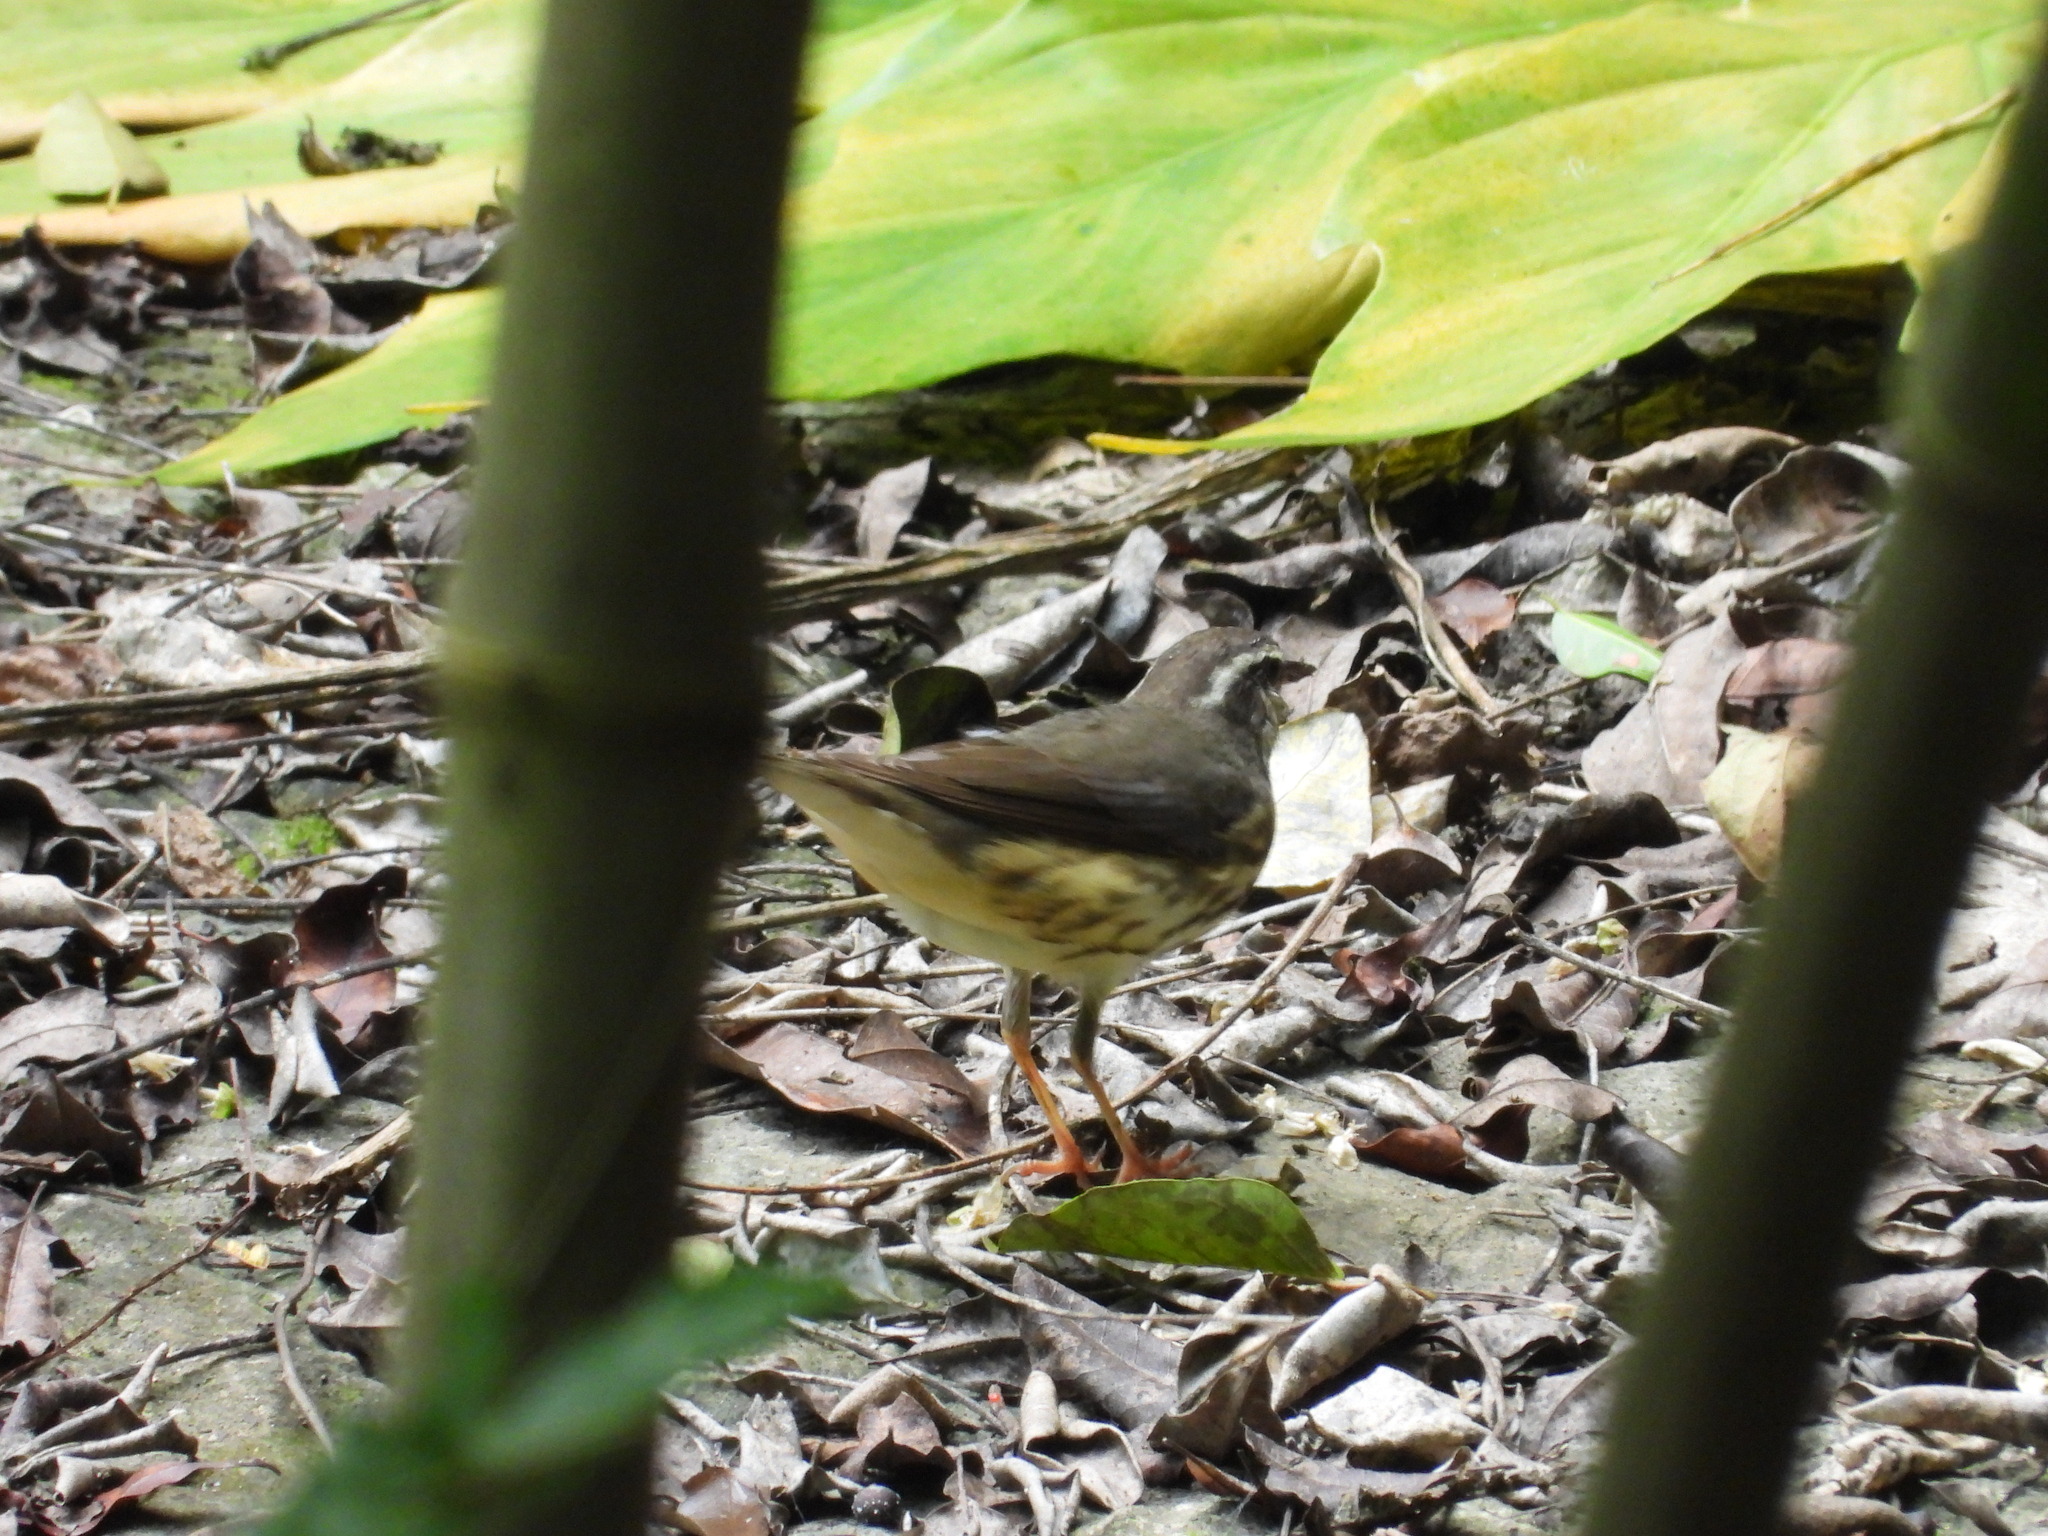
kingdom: Animalia
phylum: Chordata
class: Aves
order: Passeriformes
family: Parulidae
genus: Parkesia
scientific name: Parkesia motacilla
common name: Louisiana waterthrush
